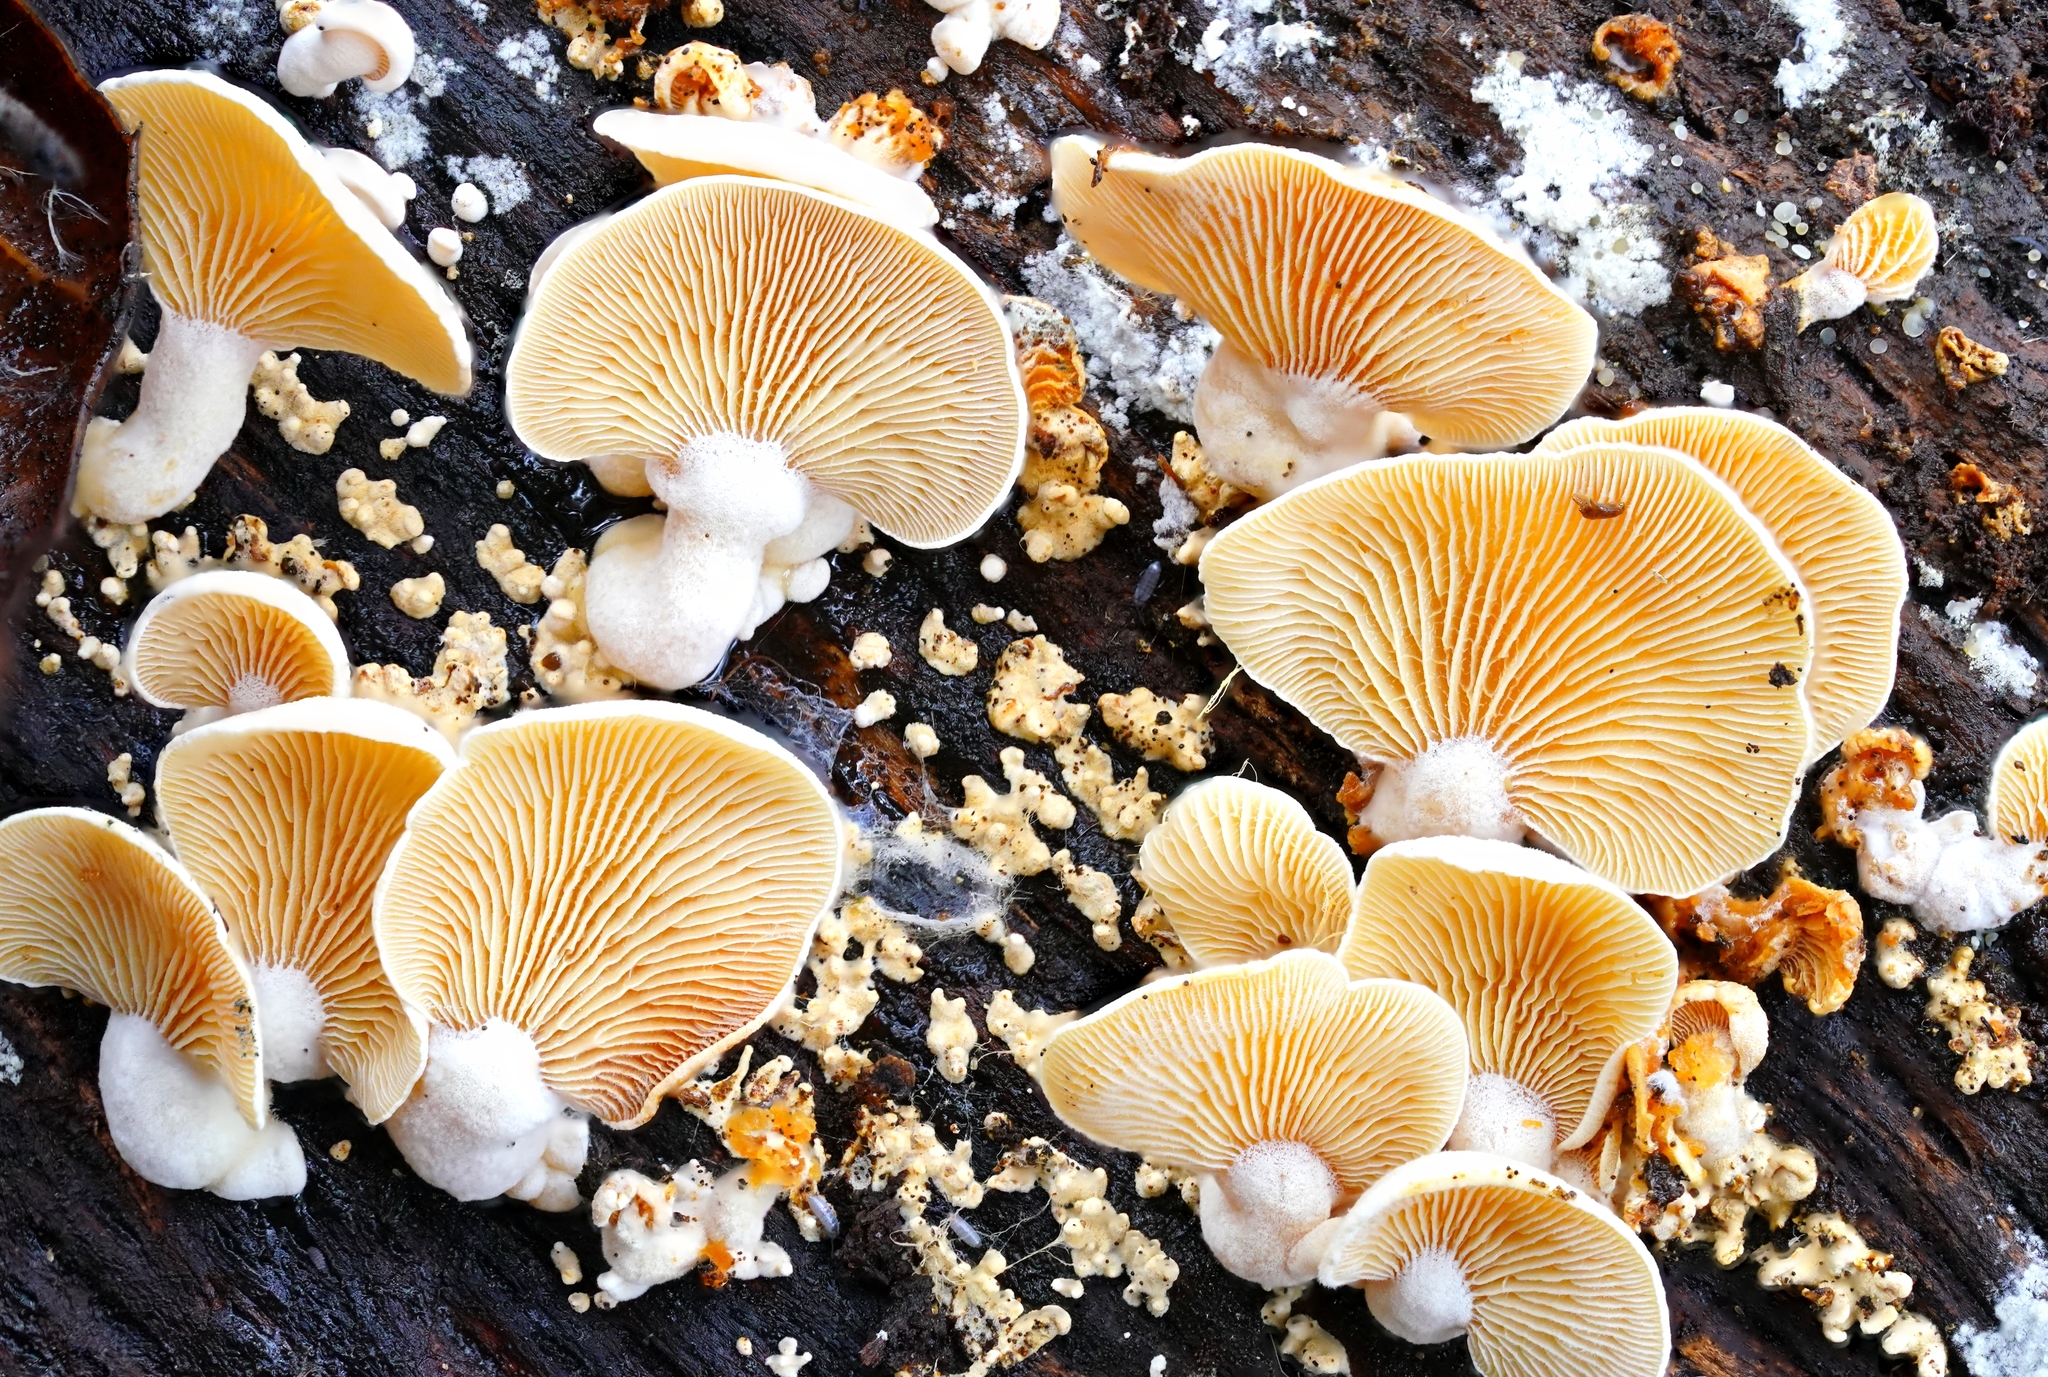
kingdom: Fungi
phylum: Basidiomycota
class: Agaricomycetes
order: Agaricales
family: Mycenaceae
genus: Panellus
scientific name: Panellus stipticus
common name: Bitter oysterling
